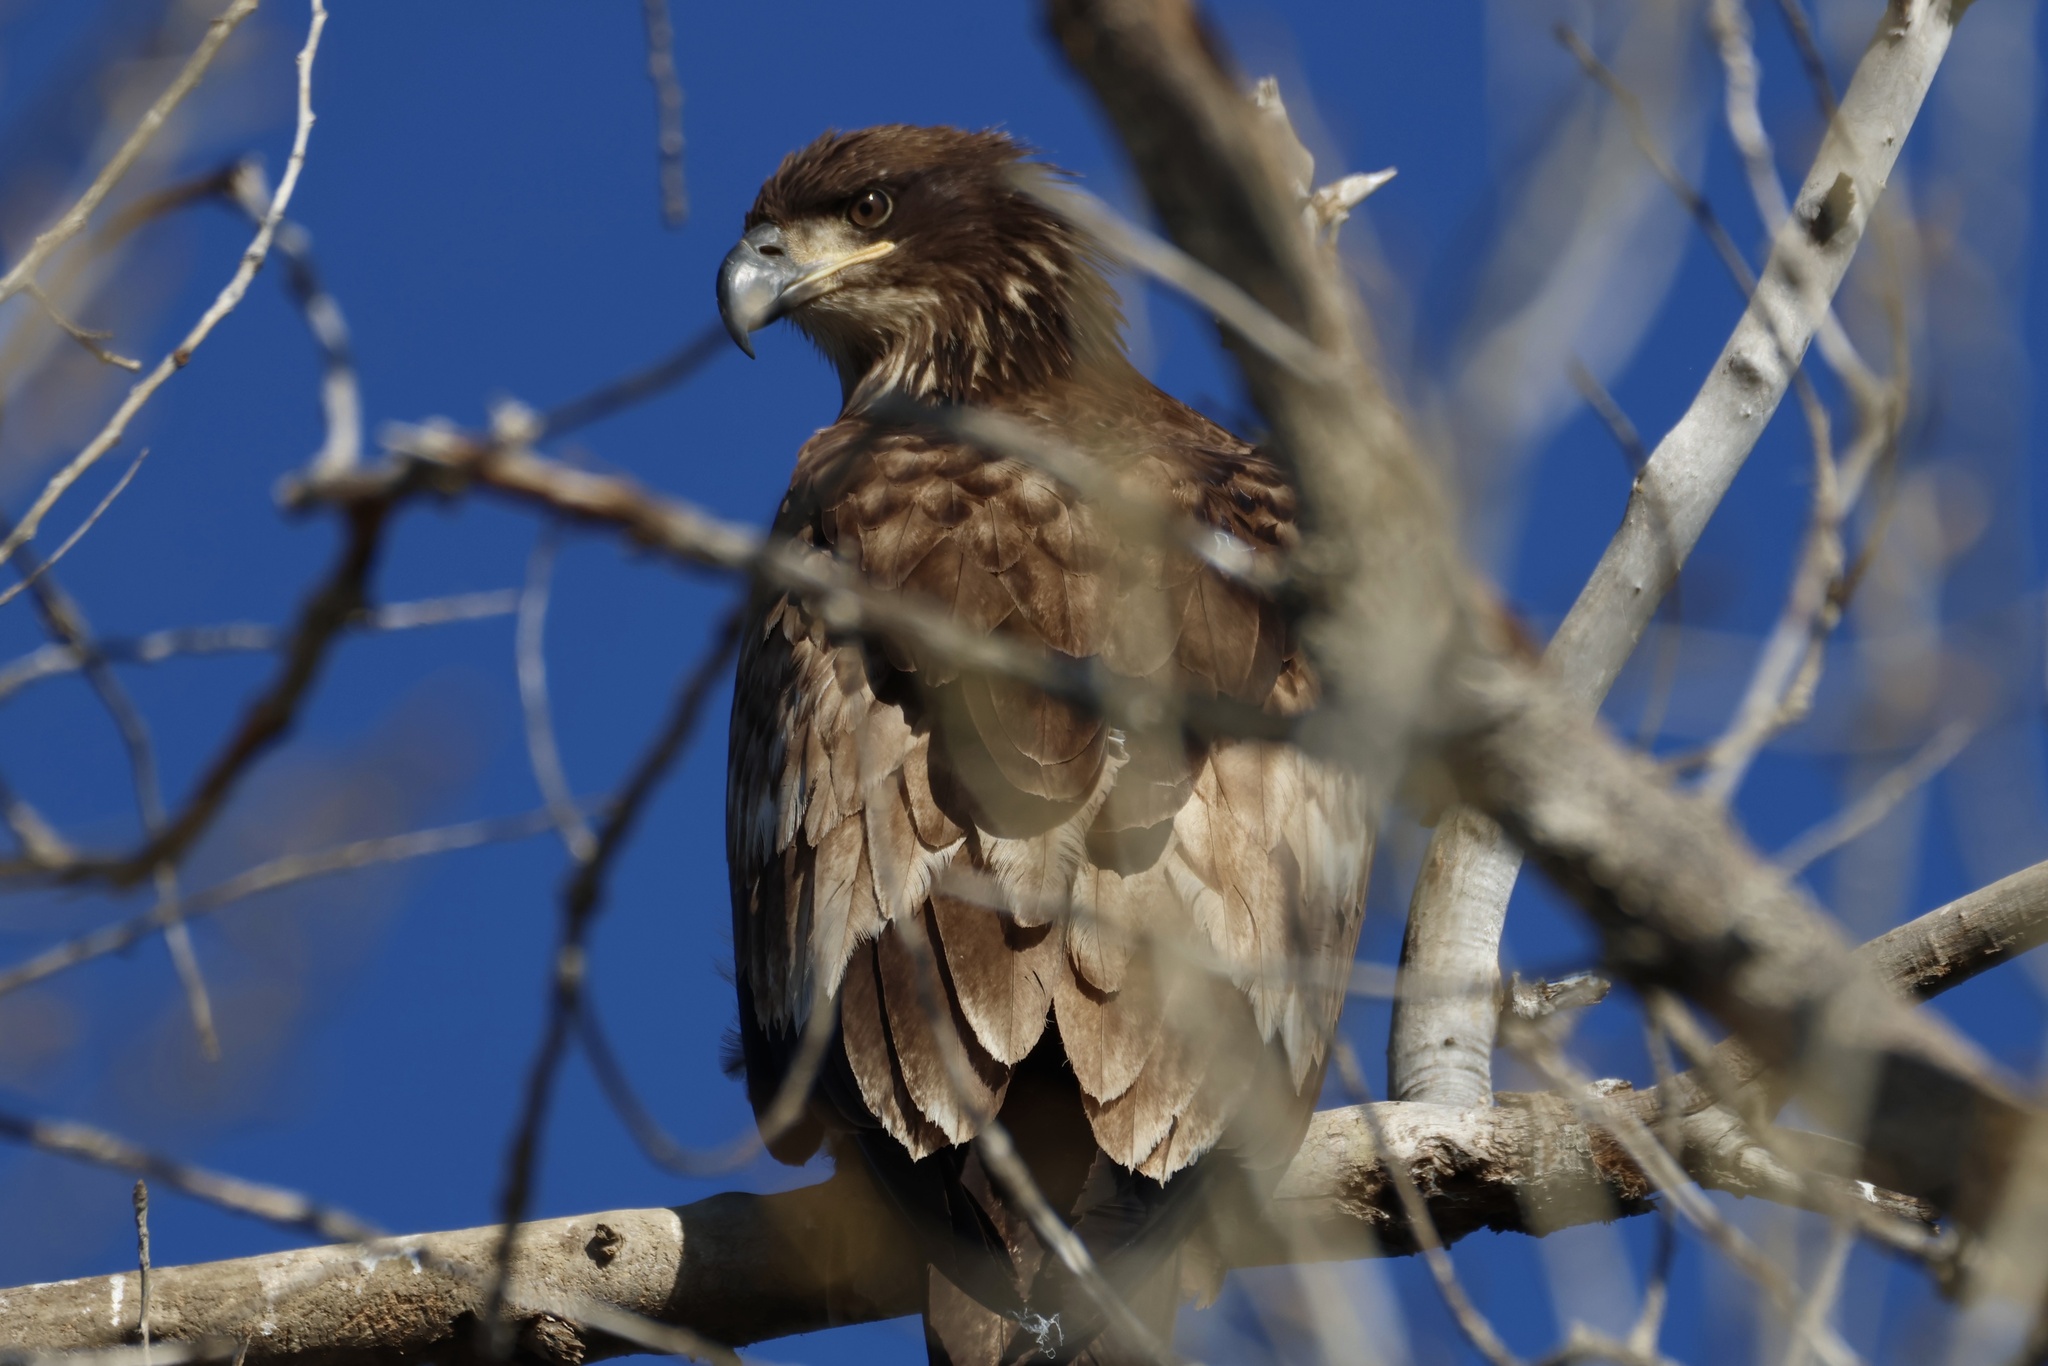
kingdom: Animalia
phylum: Chordata
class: Aves
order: Accipitriformes
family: Accipitridae
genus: Haliaeetus
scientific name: Haliaeetus leucocephalus
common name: Bald eagle
